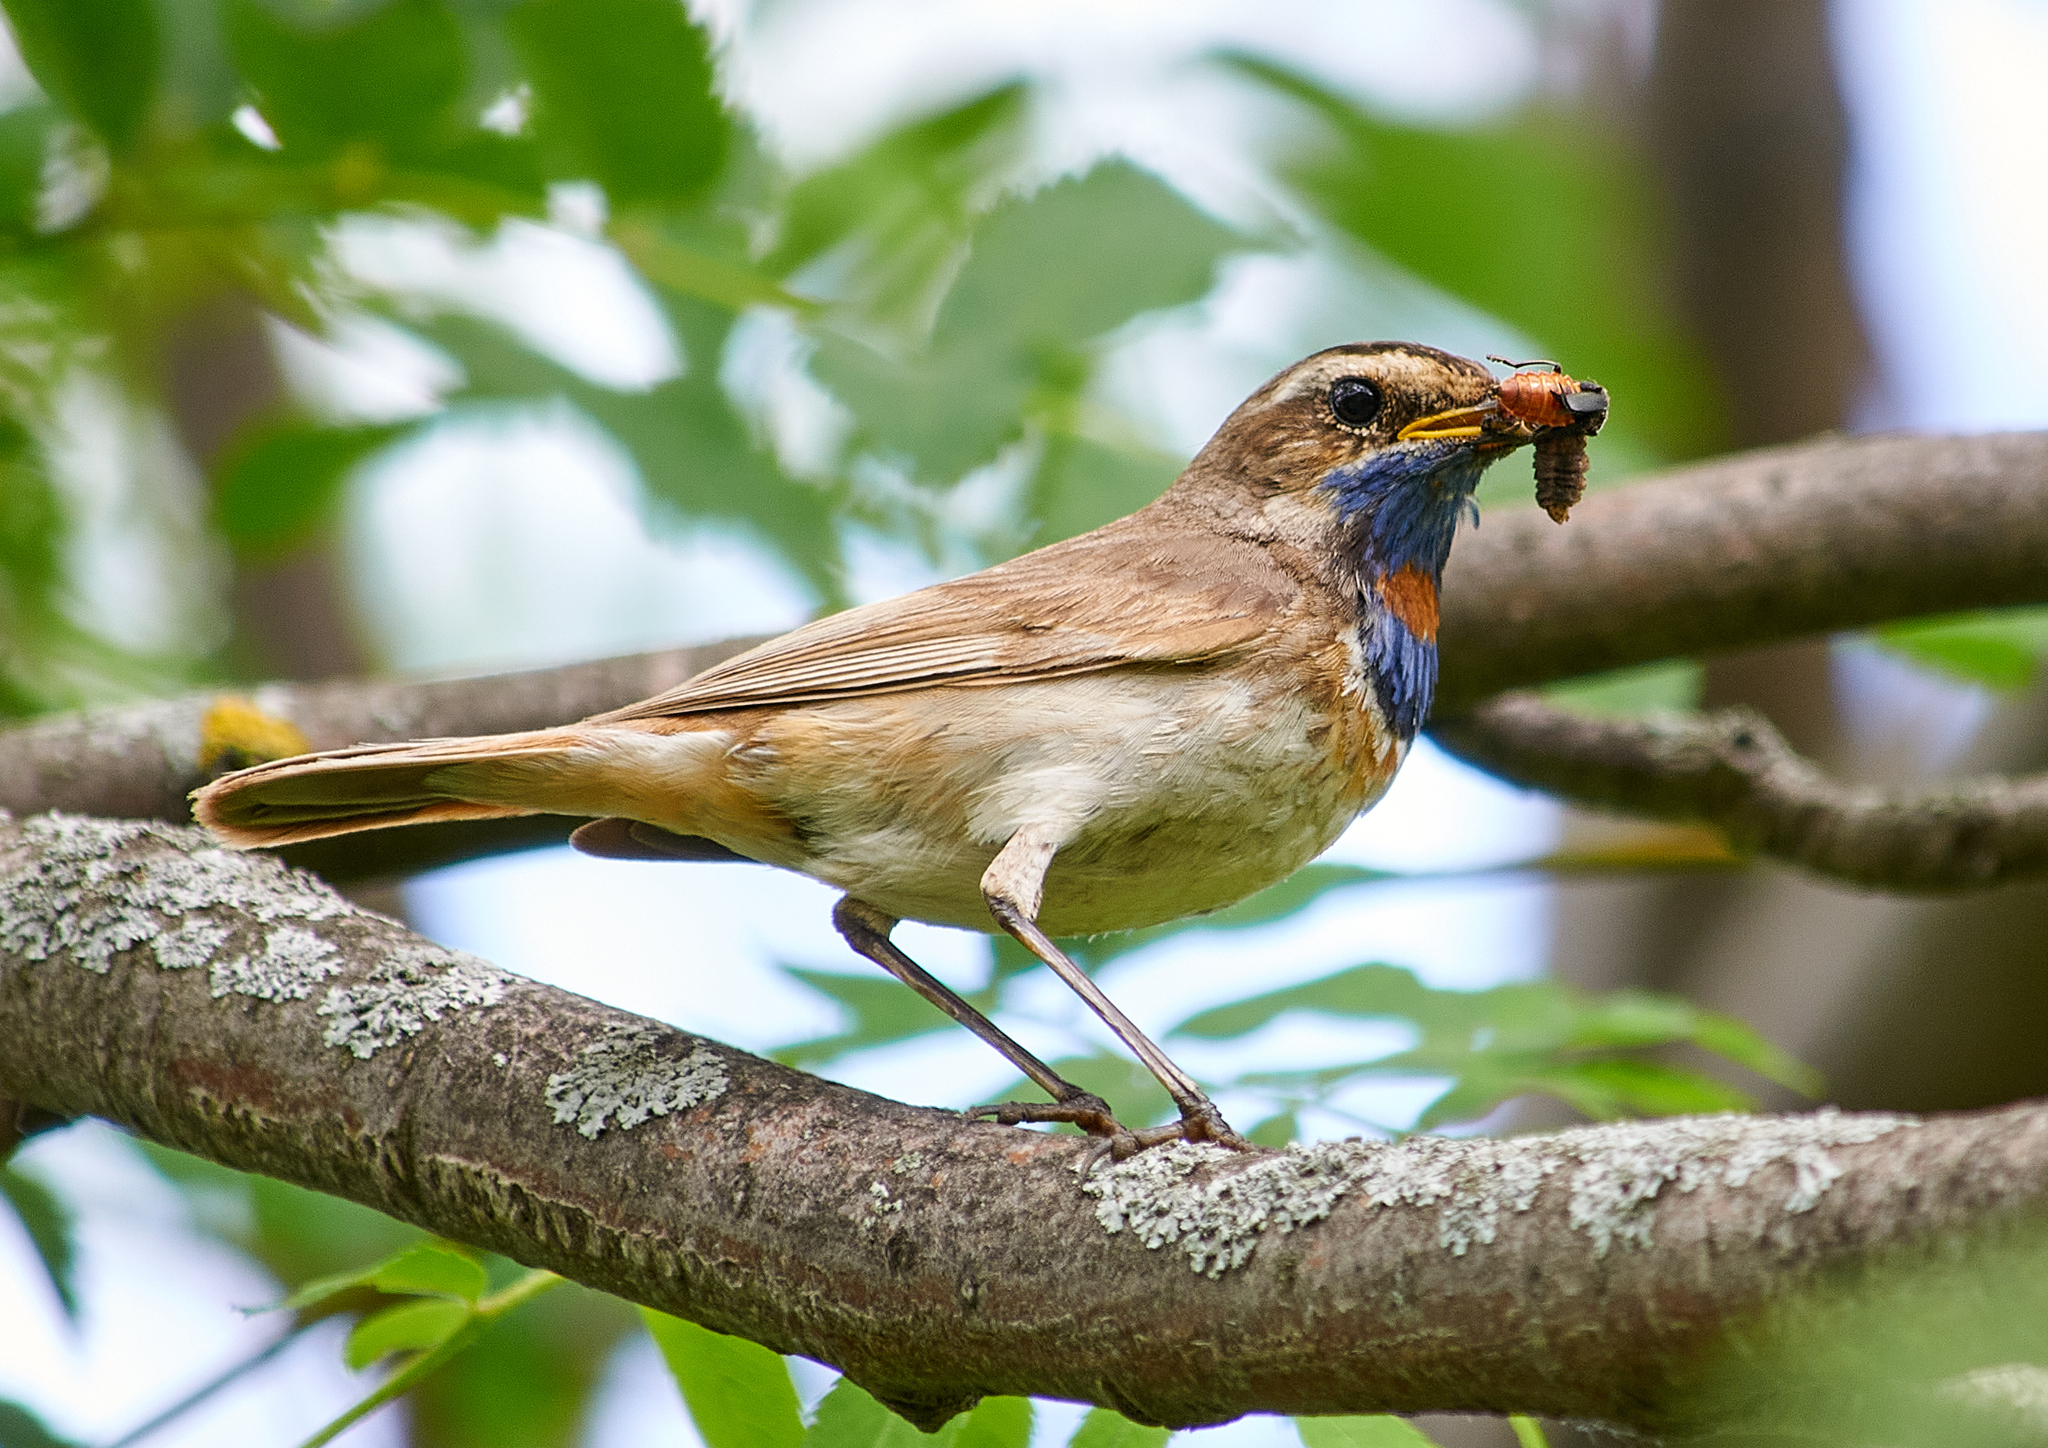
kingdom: Animalia
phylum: Chordata
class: Aves
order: Passeriformes
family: Muscicapidae
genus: Luscinia
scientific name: Luscinia svecica
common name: Bluethroat
